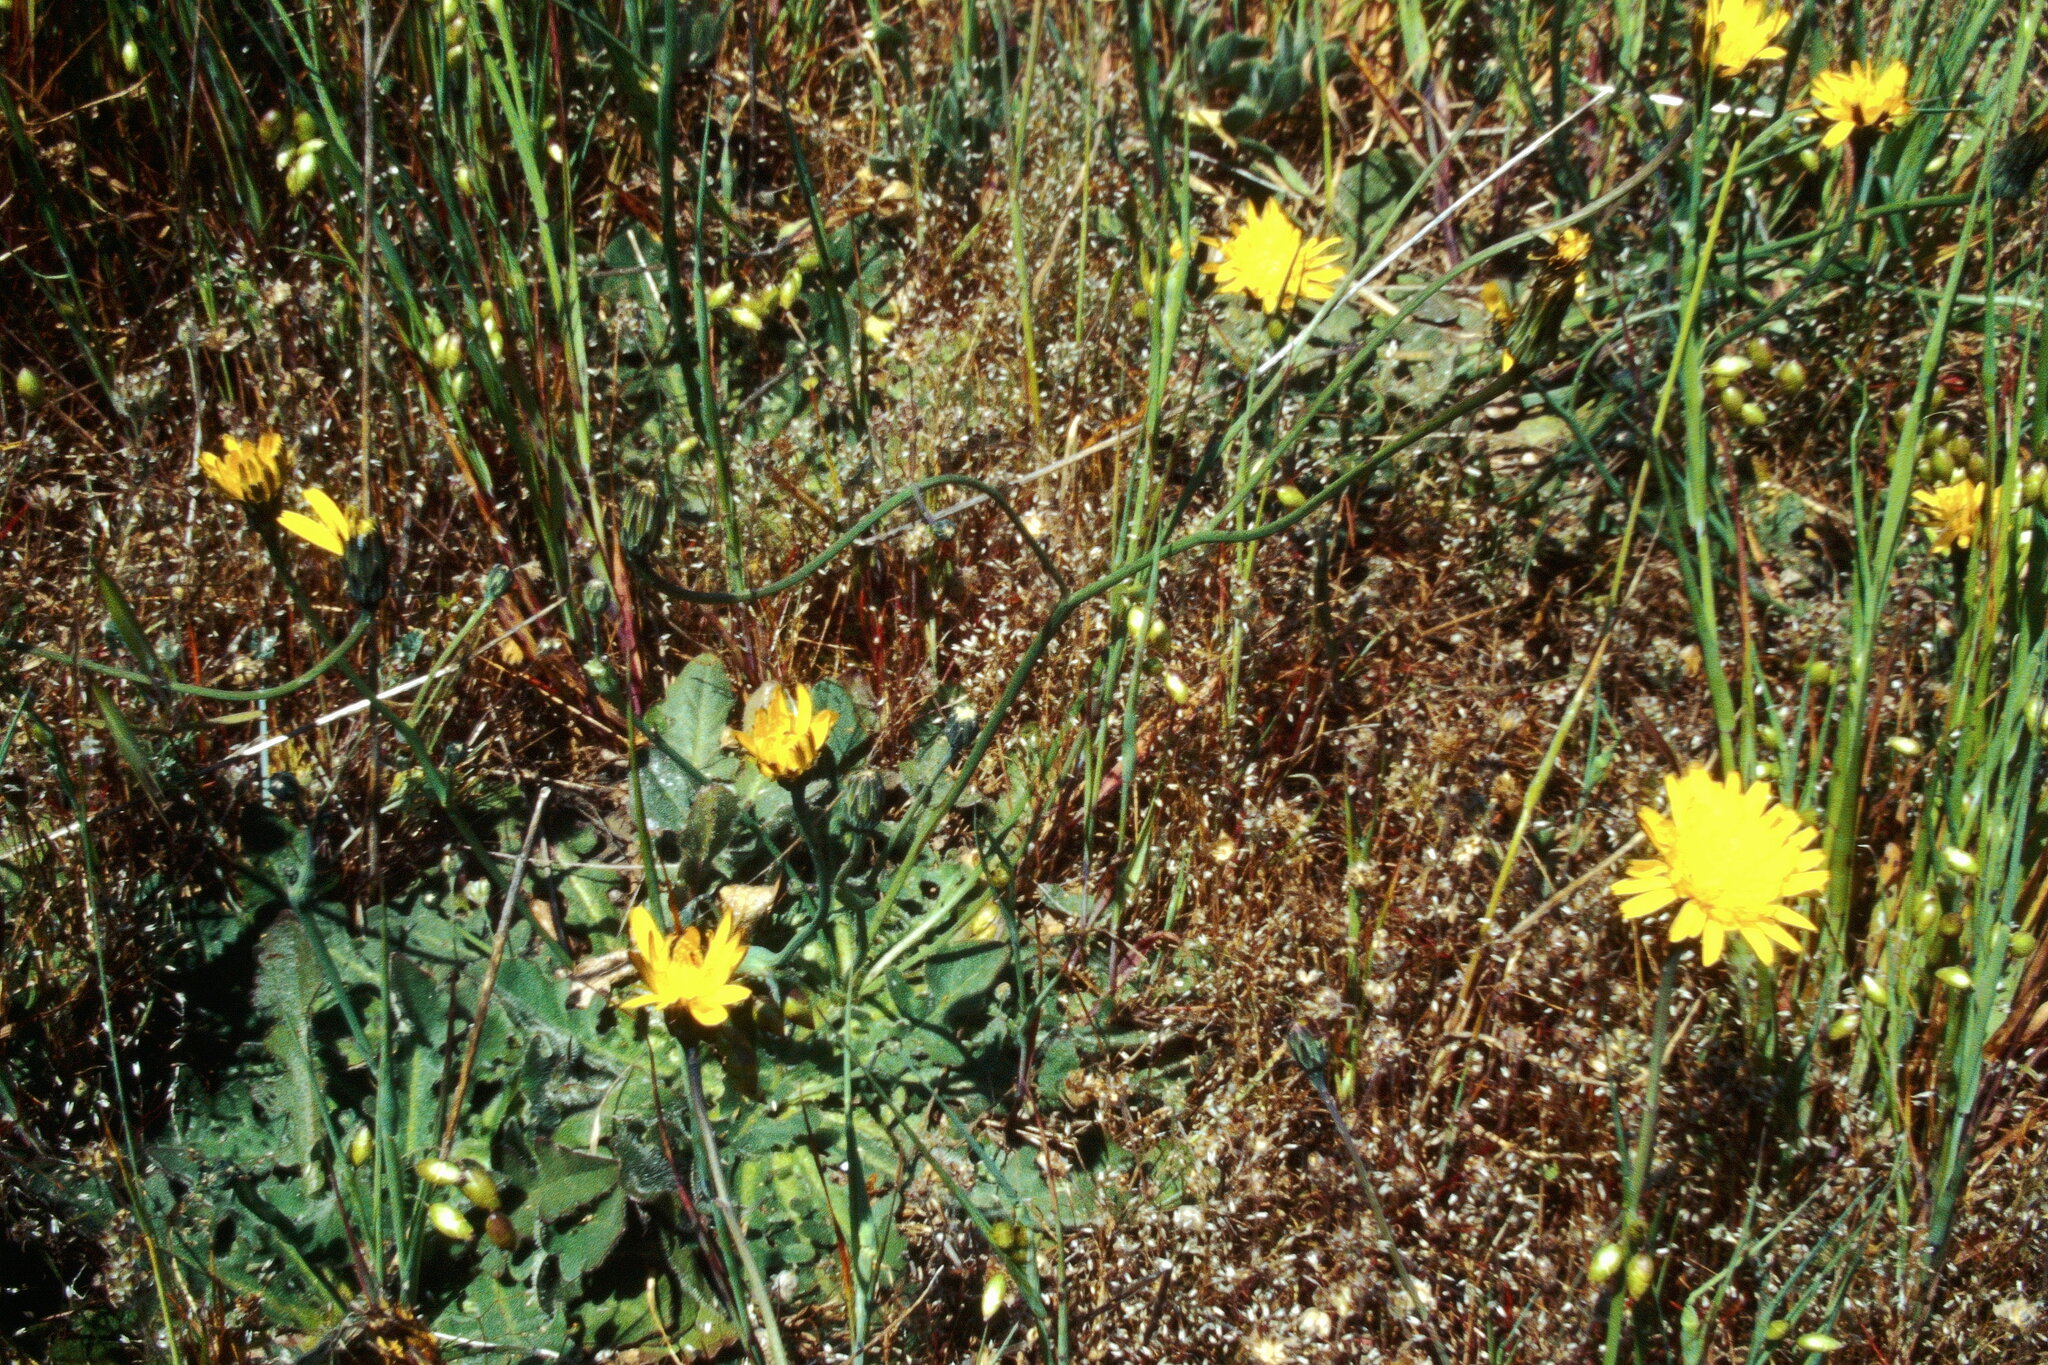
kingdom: Plantae
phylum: Tracheophyta
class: Magnoliopsida
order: Asterales
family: Asteraceae
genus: Hypochaeris
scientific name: Hypochaeris radicata
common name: Flatweed
